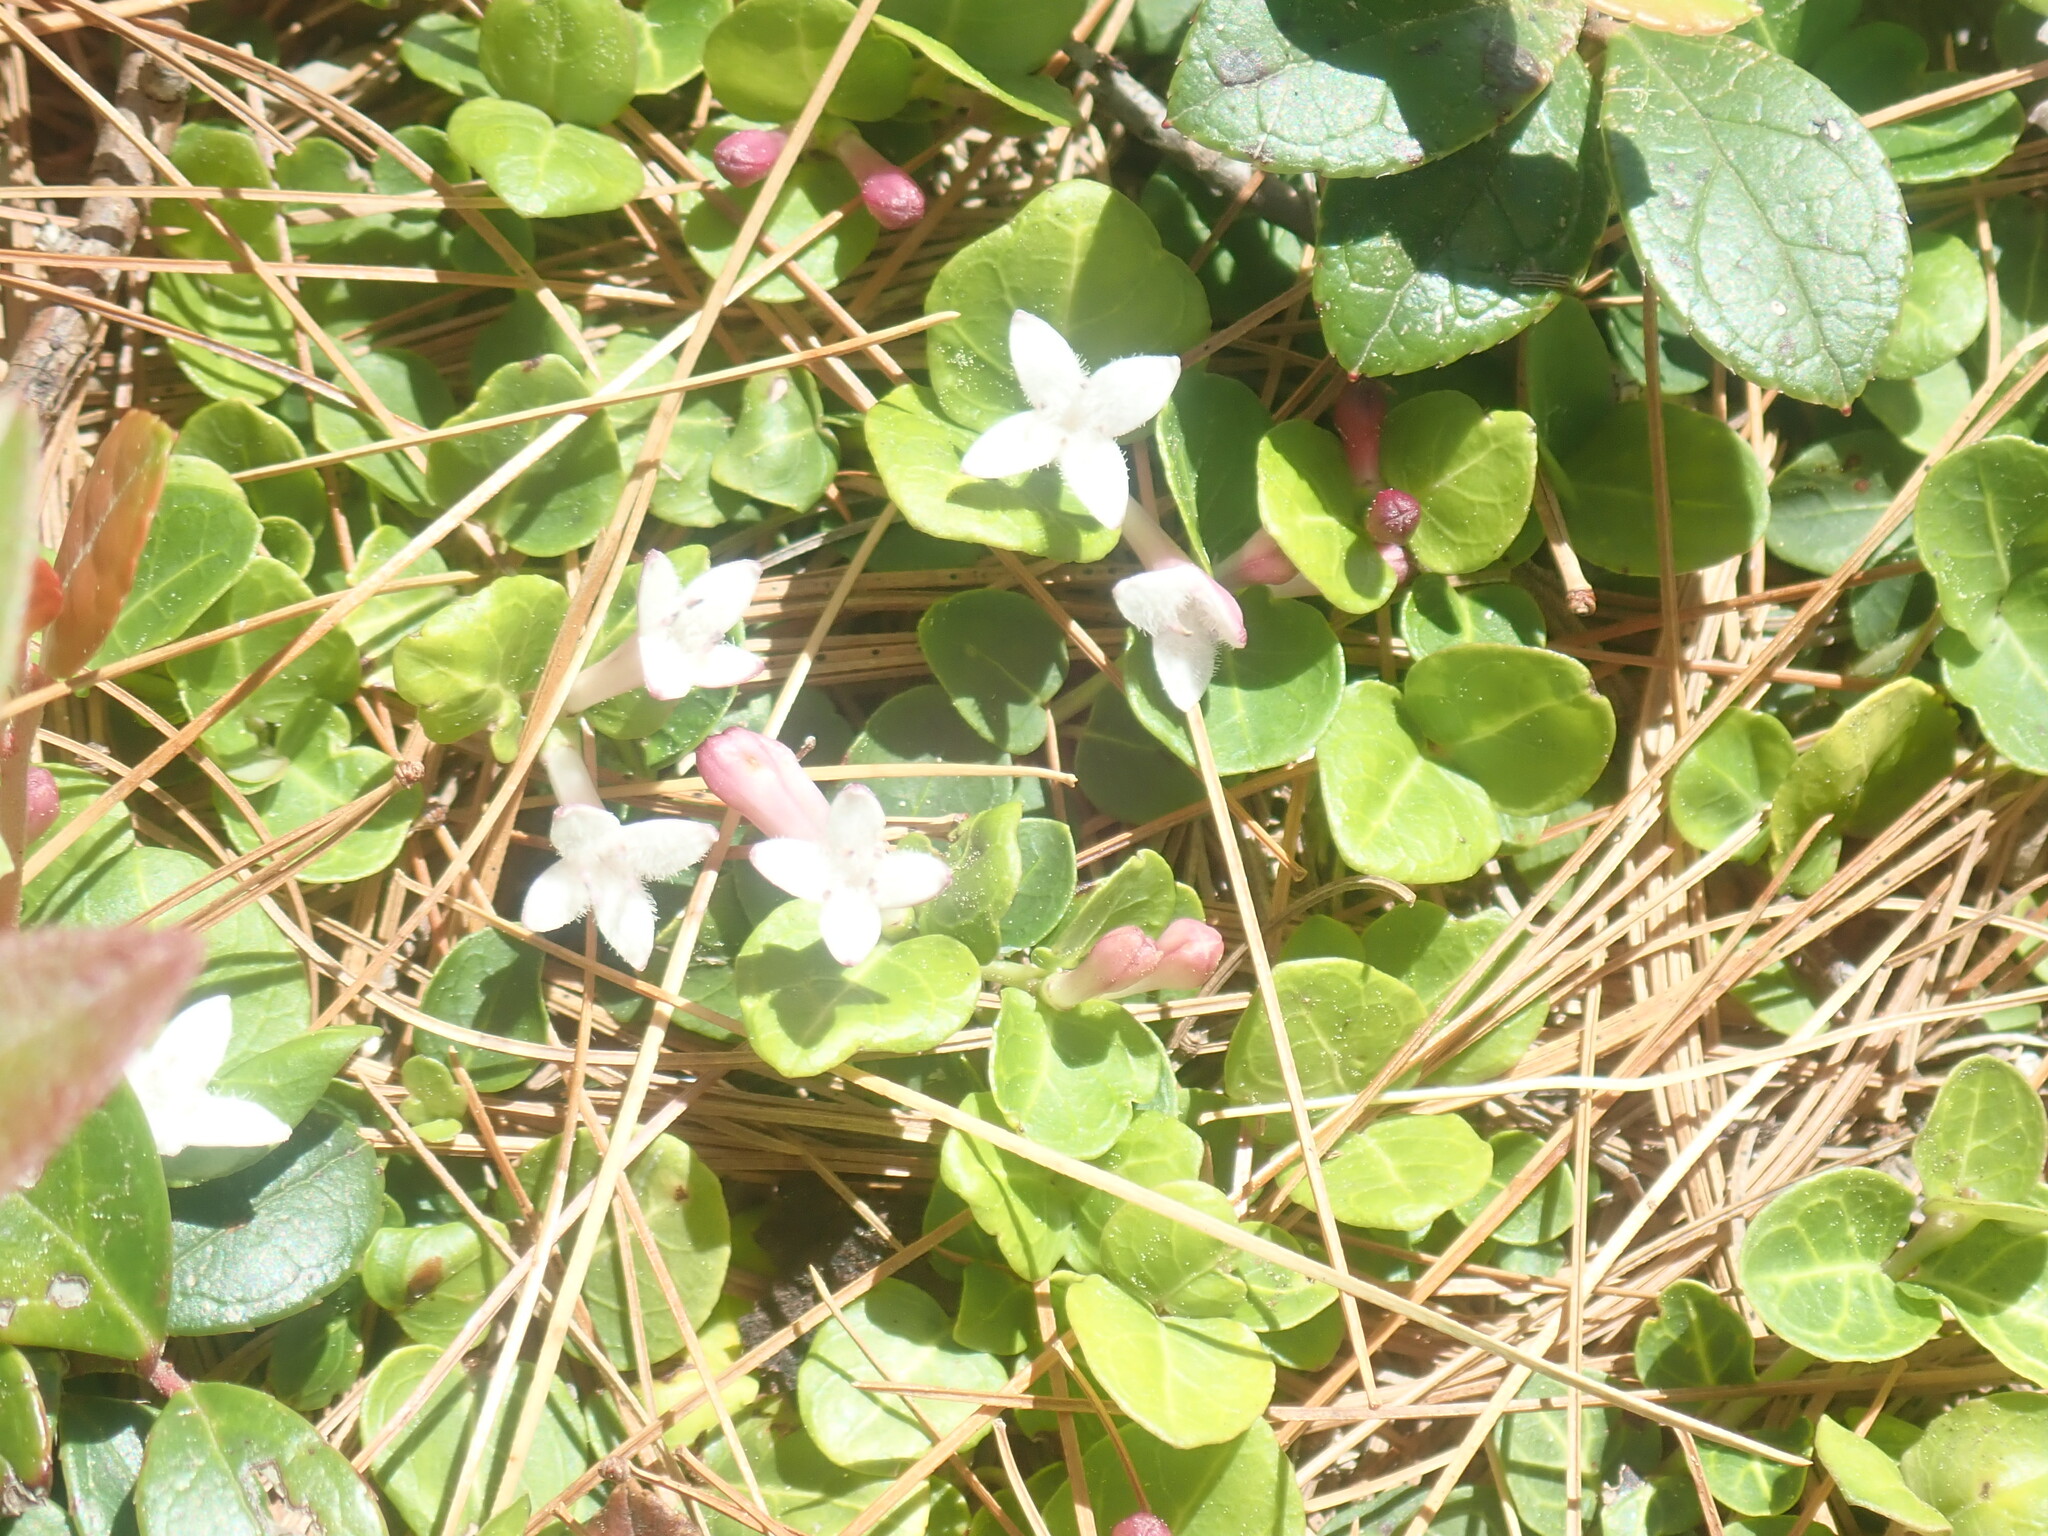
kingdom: Plantae
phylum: Tracheophyta
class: Magnoliopsida
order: Gentianales
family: Rubiaceae
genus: Mitchella
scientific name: Mitchella repens
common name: Partridge-berry
